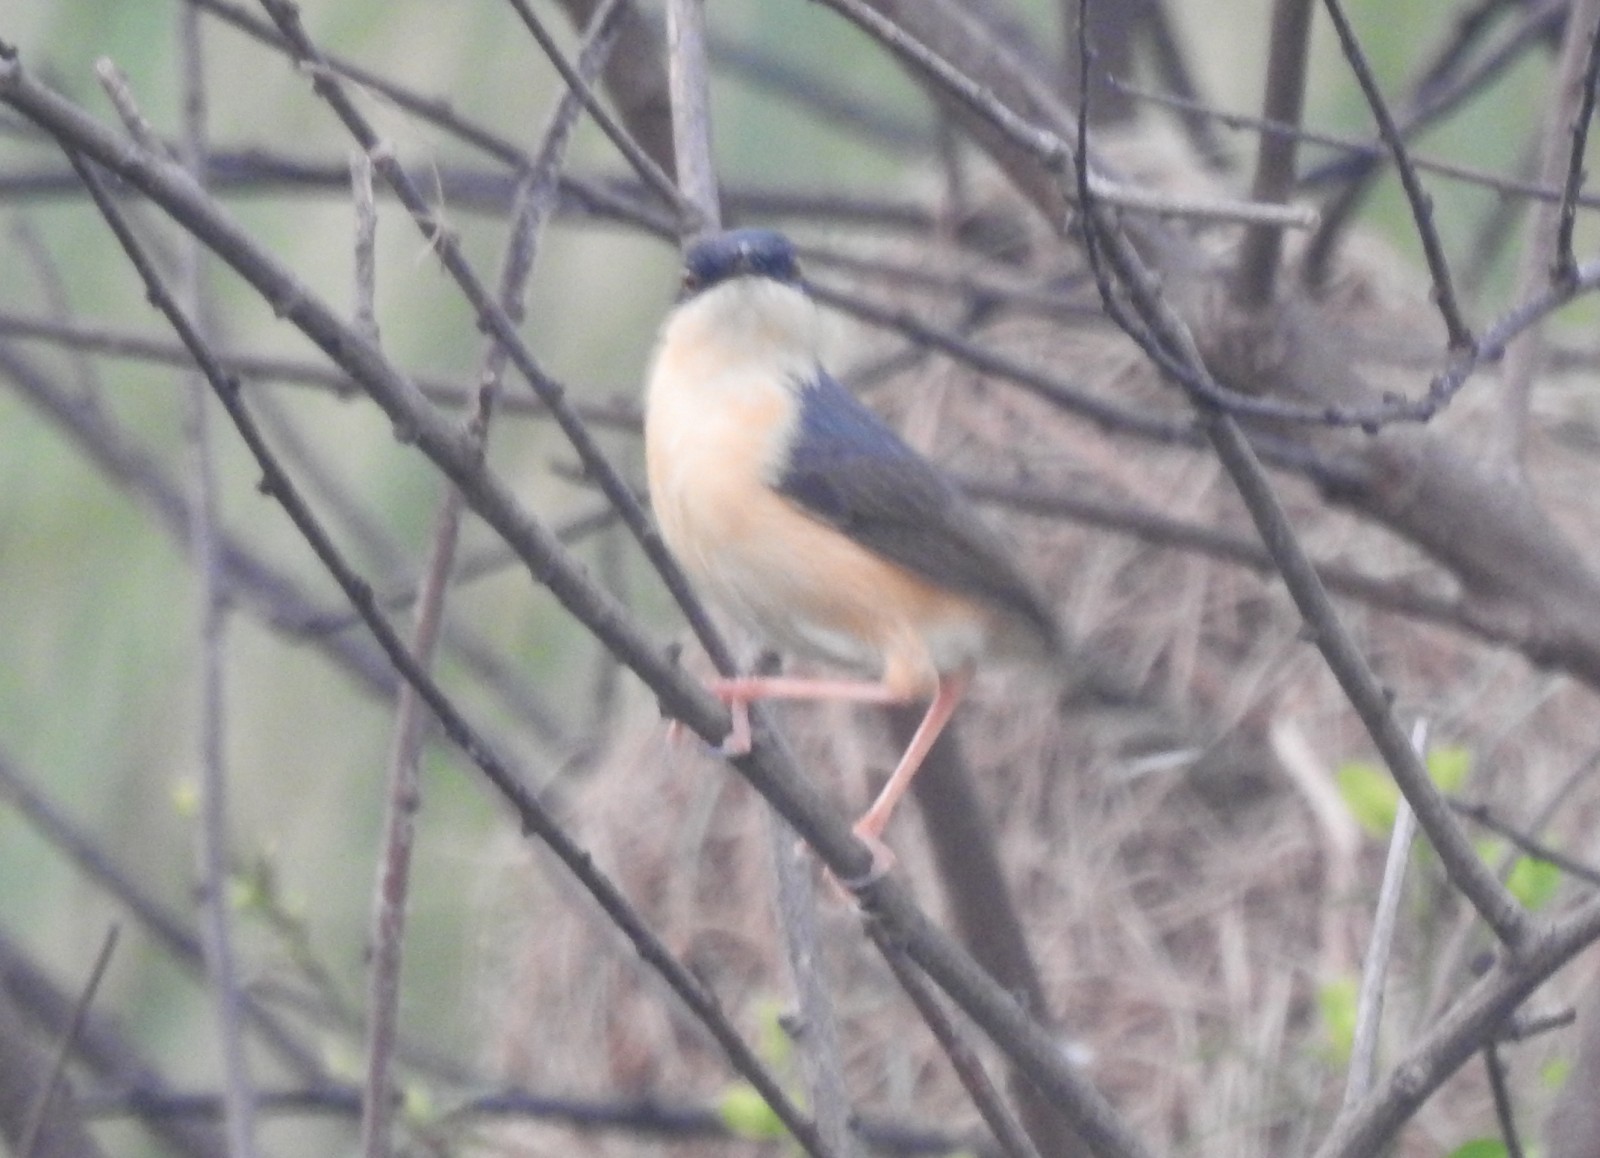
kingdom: Animalia
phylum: Chordata
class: Aves
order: Passeriformes
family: Cisticolidae
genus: Prinia
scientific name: Prinia socialis
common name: Ashy prinia
